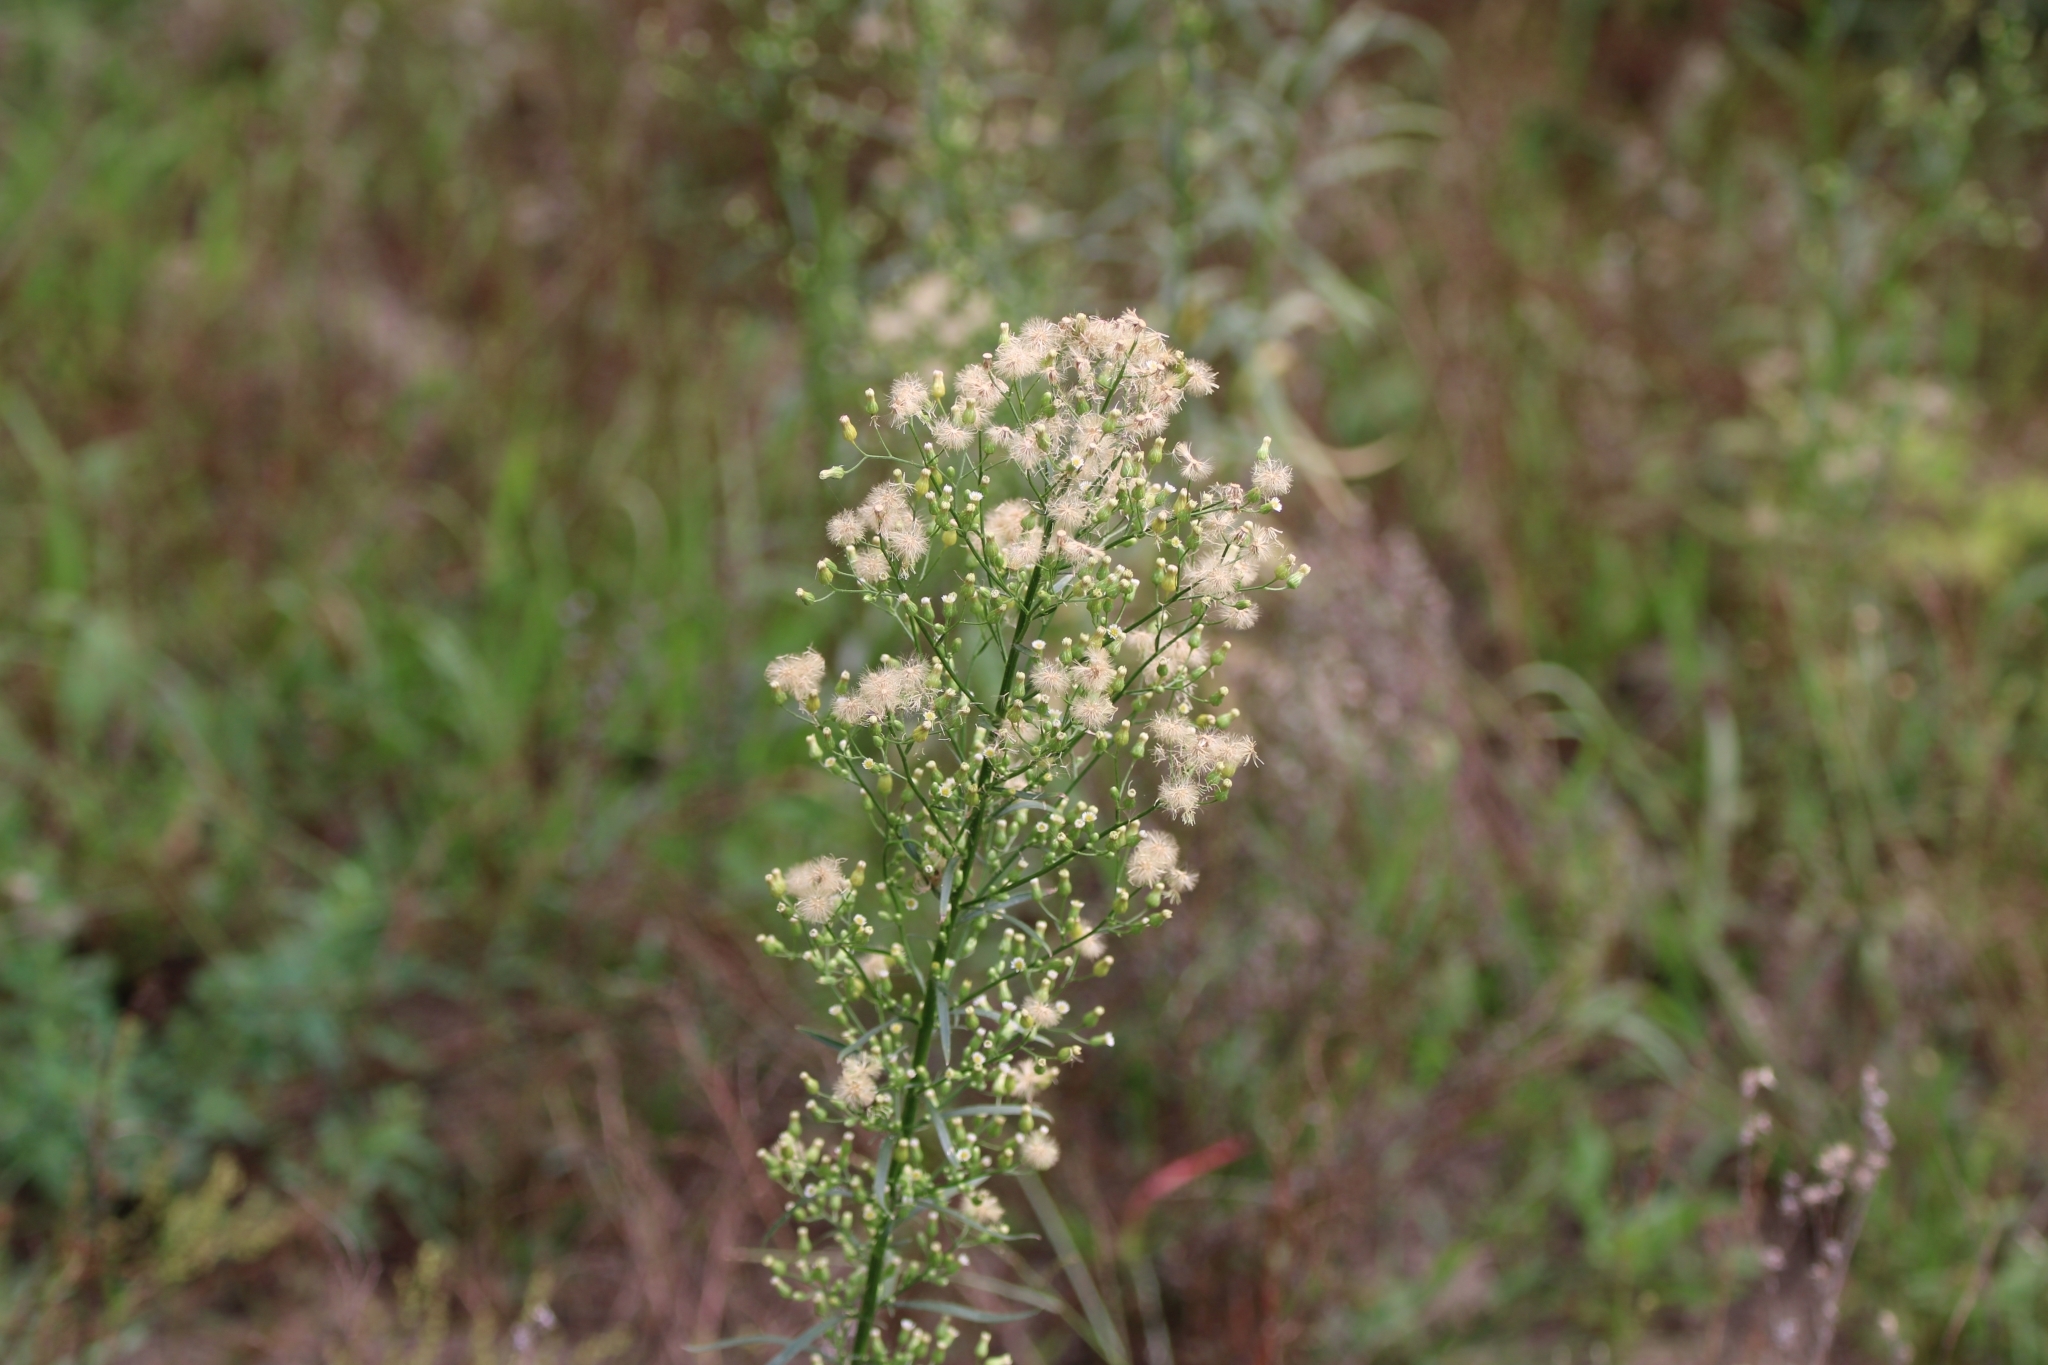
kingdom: Plantae
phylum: Tracheophyta
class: Magnoliopsida
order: Asterales
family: Asteraceae
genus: Erigeron
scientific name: Erigeron canadensis
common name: Canadian fleabane
